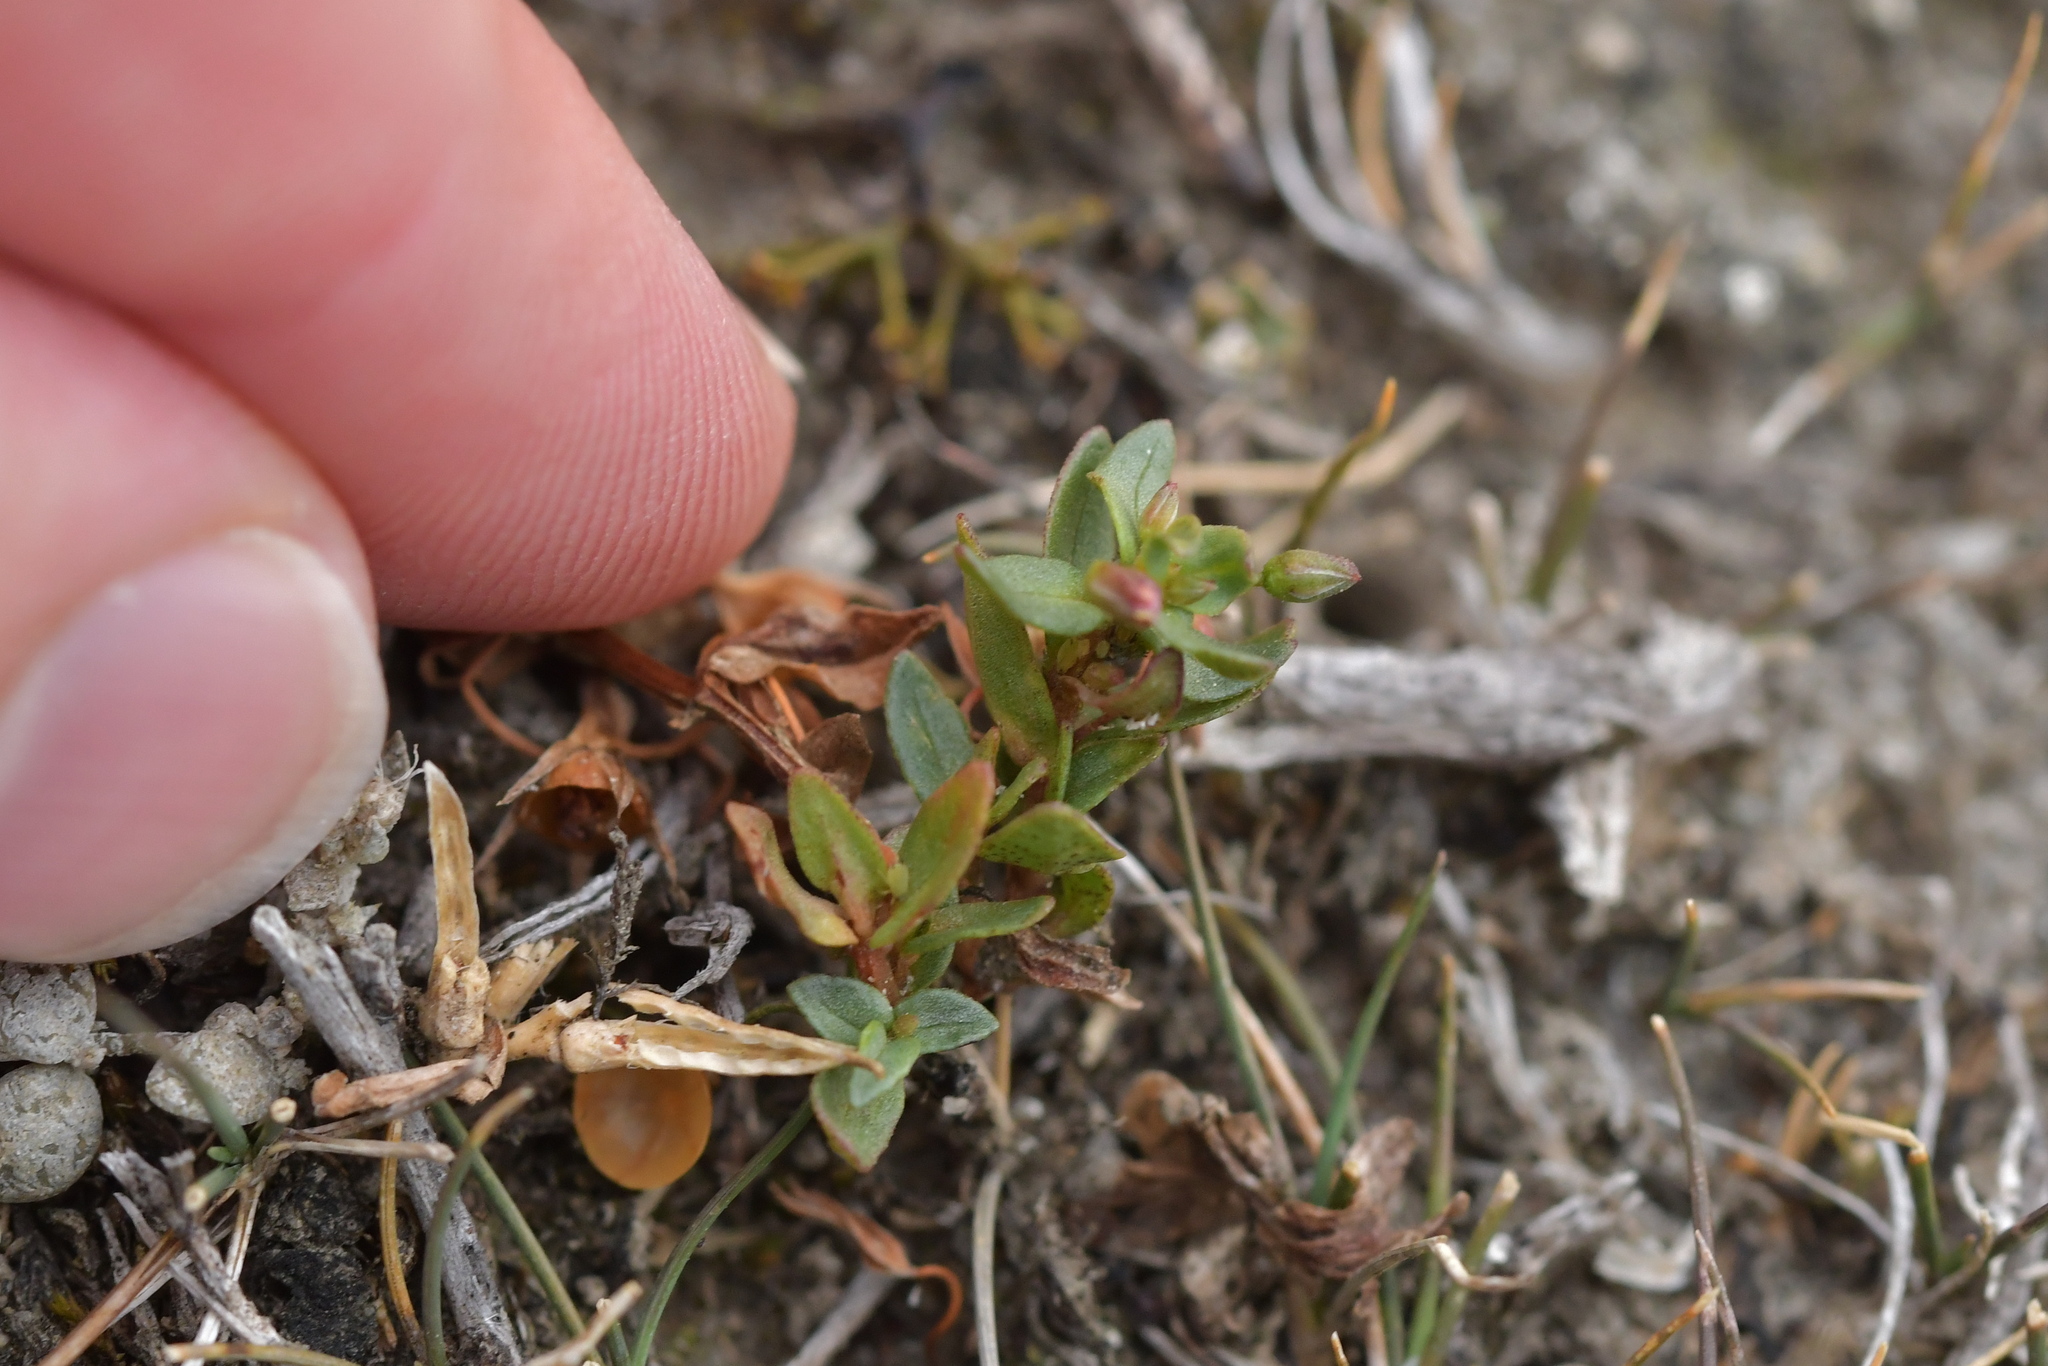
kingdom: Plantae
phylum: Tracheophyta
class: Magnoliopsida
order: Ericales
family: Primulaceae
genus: Lysimachia
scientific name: Lysimachia arvensis
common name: Scarlet pimpernel
